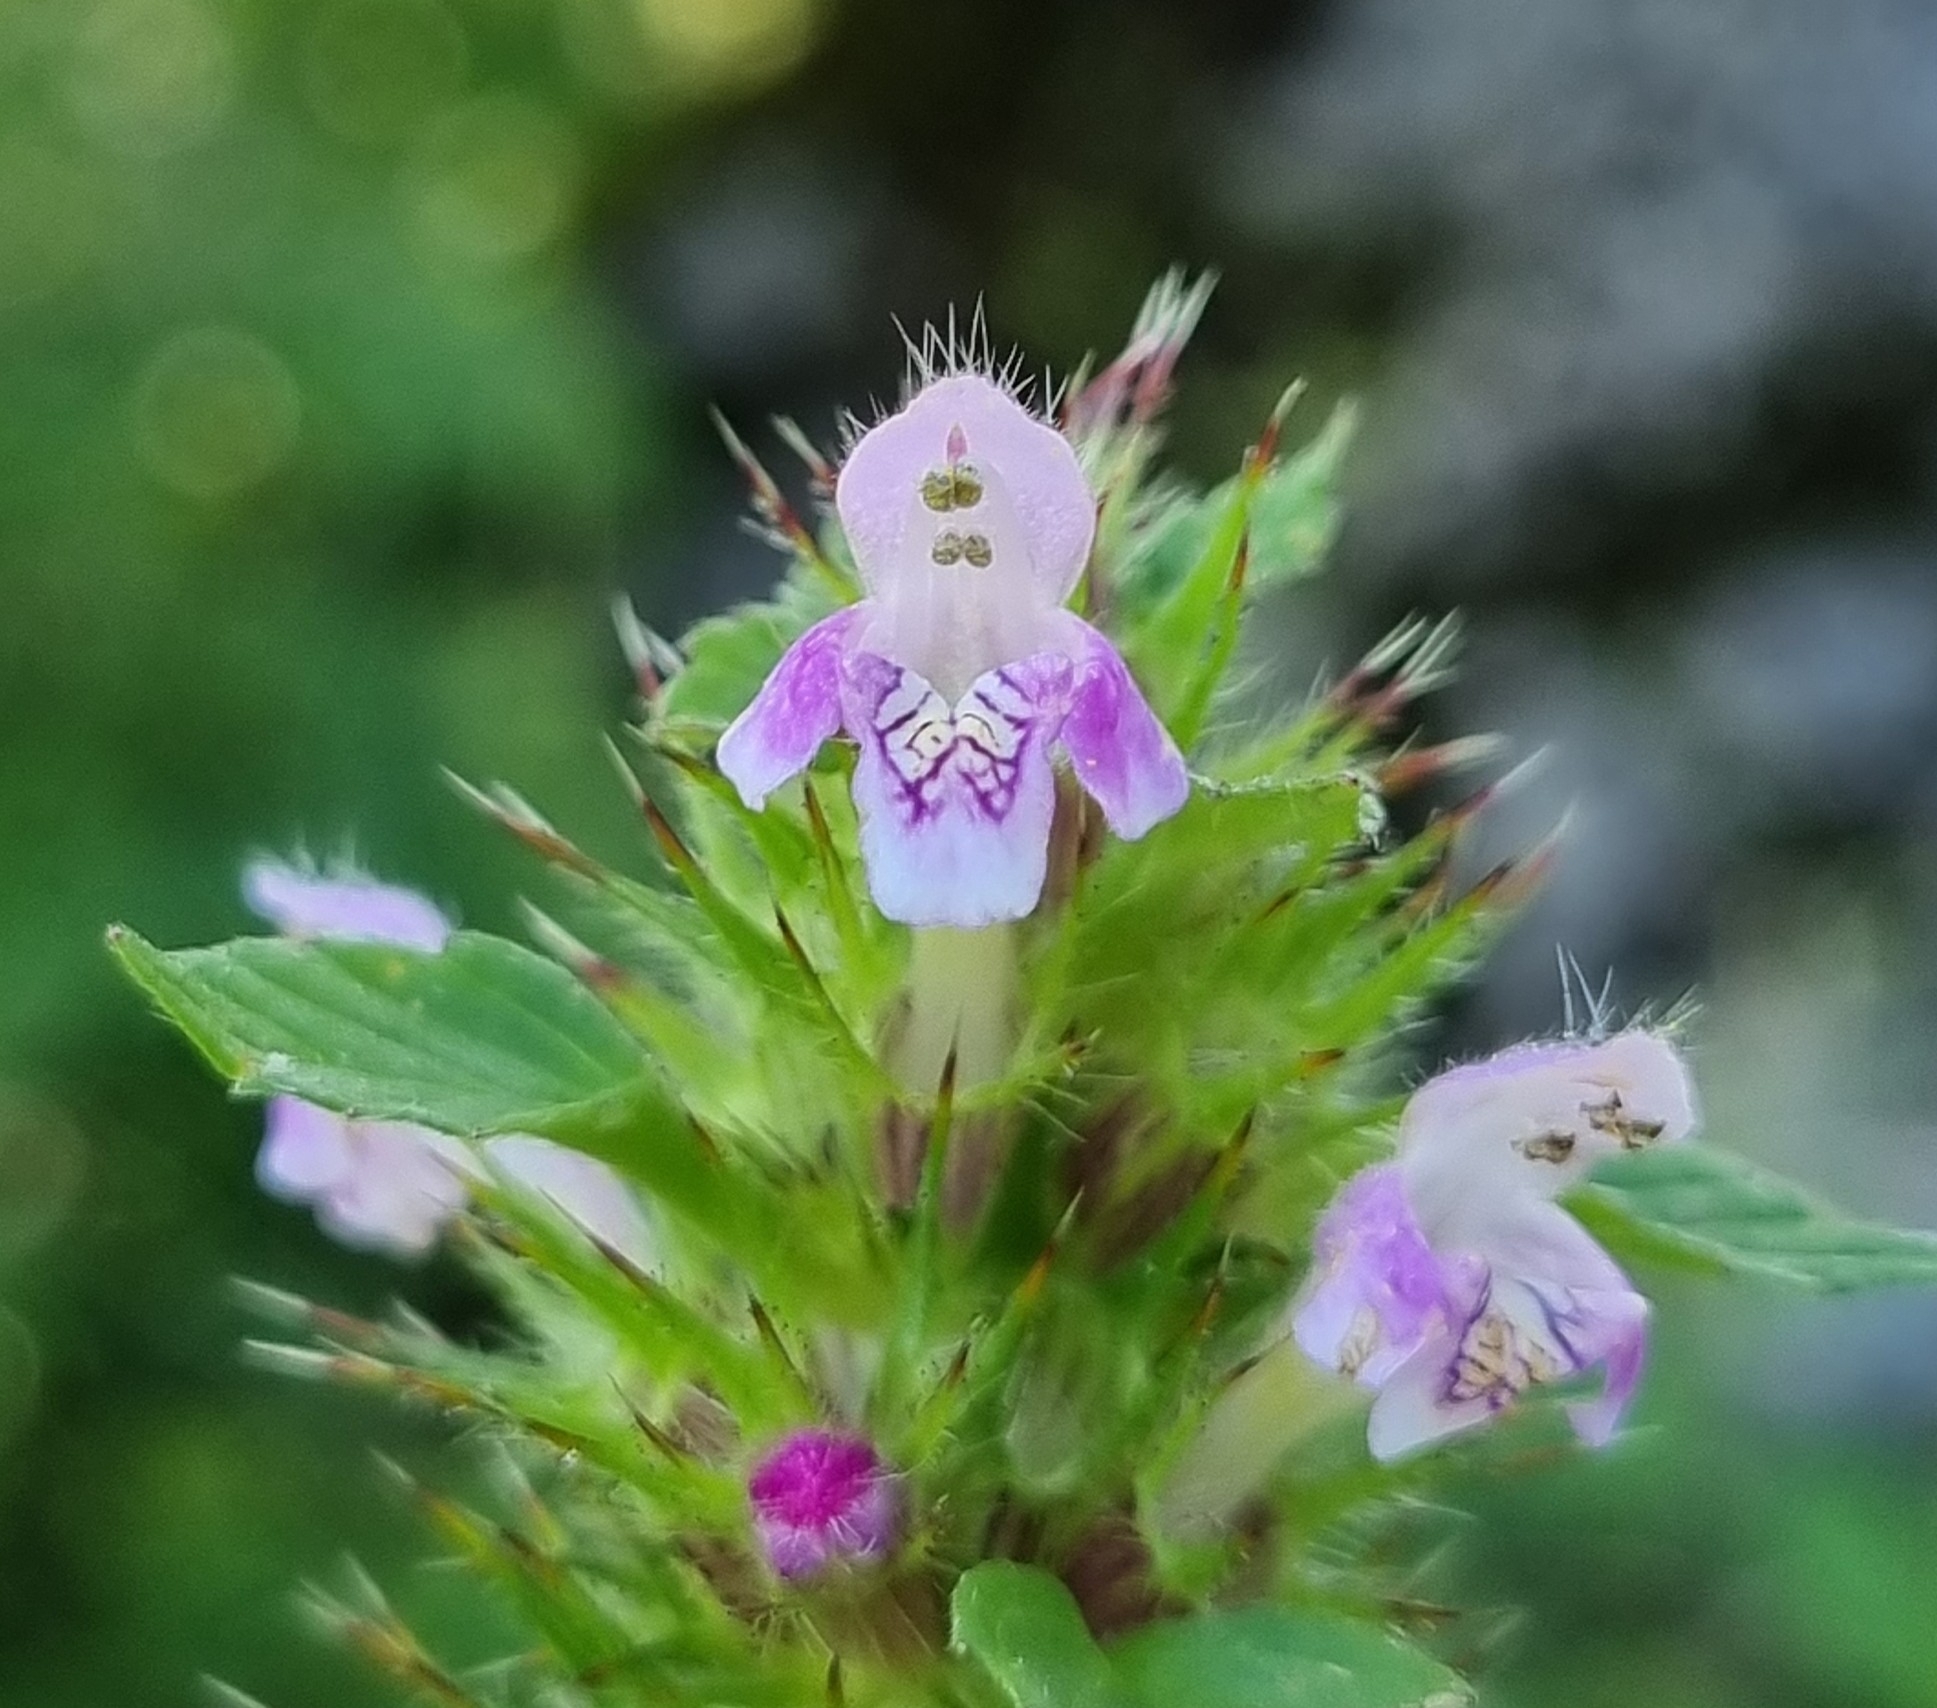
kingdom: Plantae
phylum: Tracheophyta
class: Magnoliopsida
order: Lamiales
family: Lamiaceae
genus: Galeopsis
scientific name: Galeopsis tetrahit
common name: Common hemp-nettle
